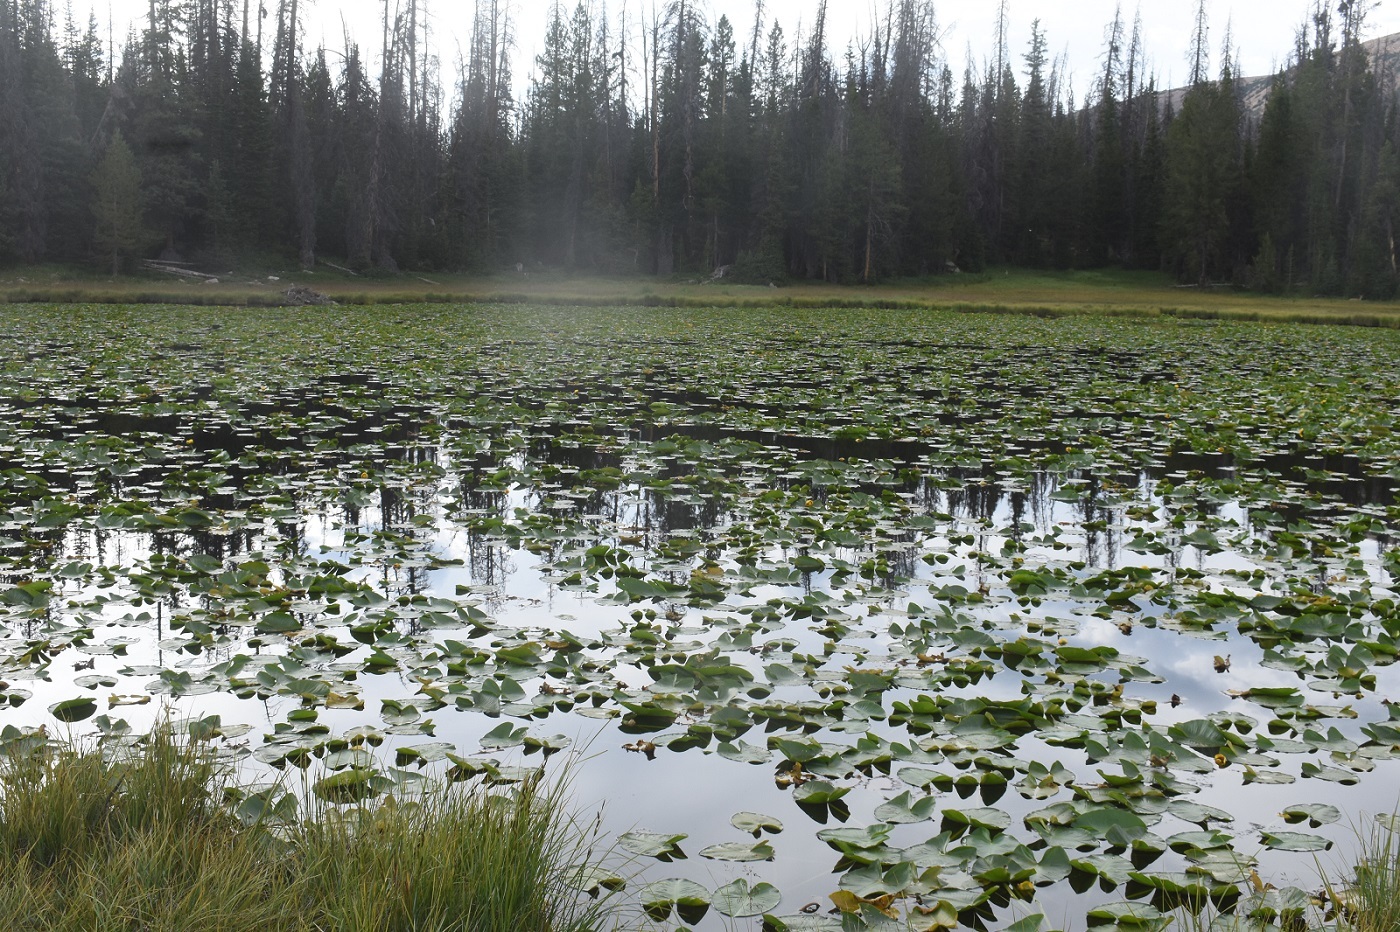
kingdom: Plantae
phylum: Tracheophyta
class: Magnoliopsida
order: Nymphaeales
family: Nymphaeaceae
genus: Nuphar
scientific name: Nuphar polysepala
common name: Rocky mountain cow-lily
